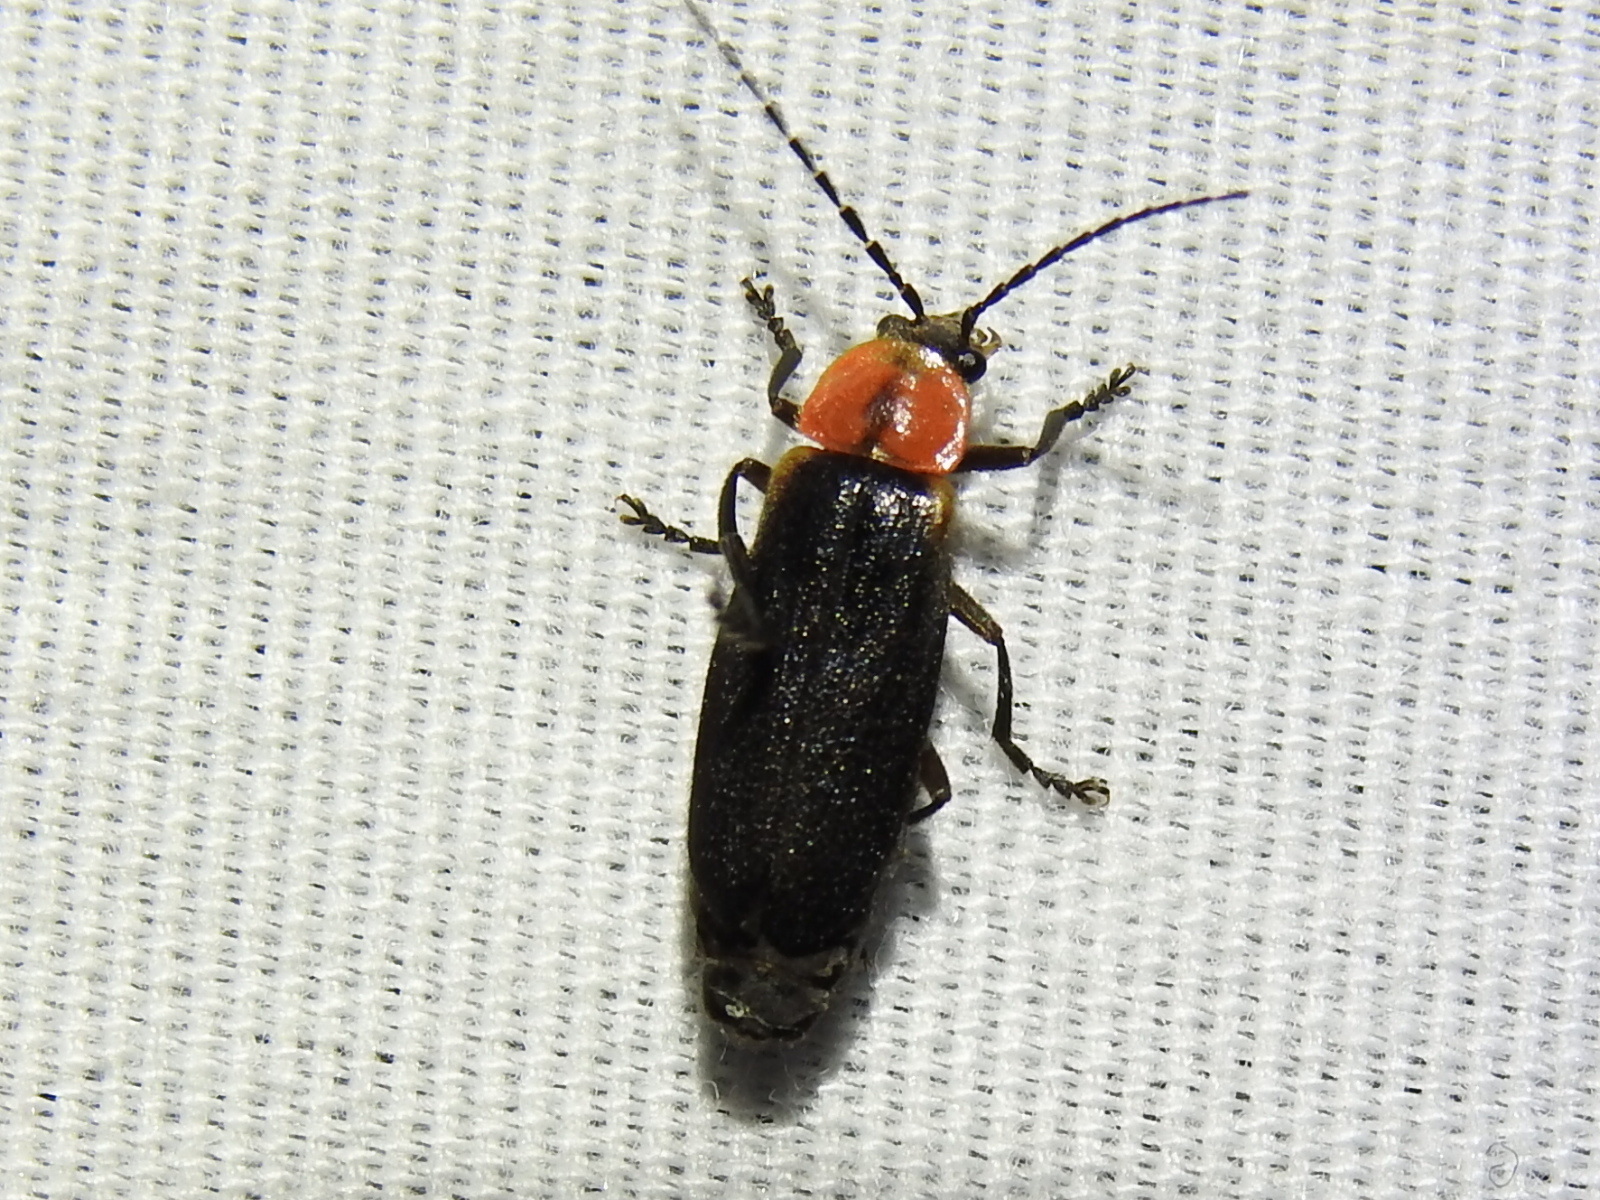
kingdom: Animalia
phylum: Arthropoda
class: Insecta
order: Coleoptera
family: Cantharidae
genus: Discodon
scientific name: Discodon planicolle
